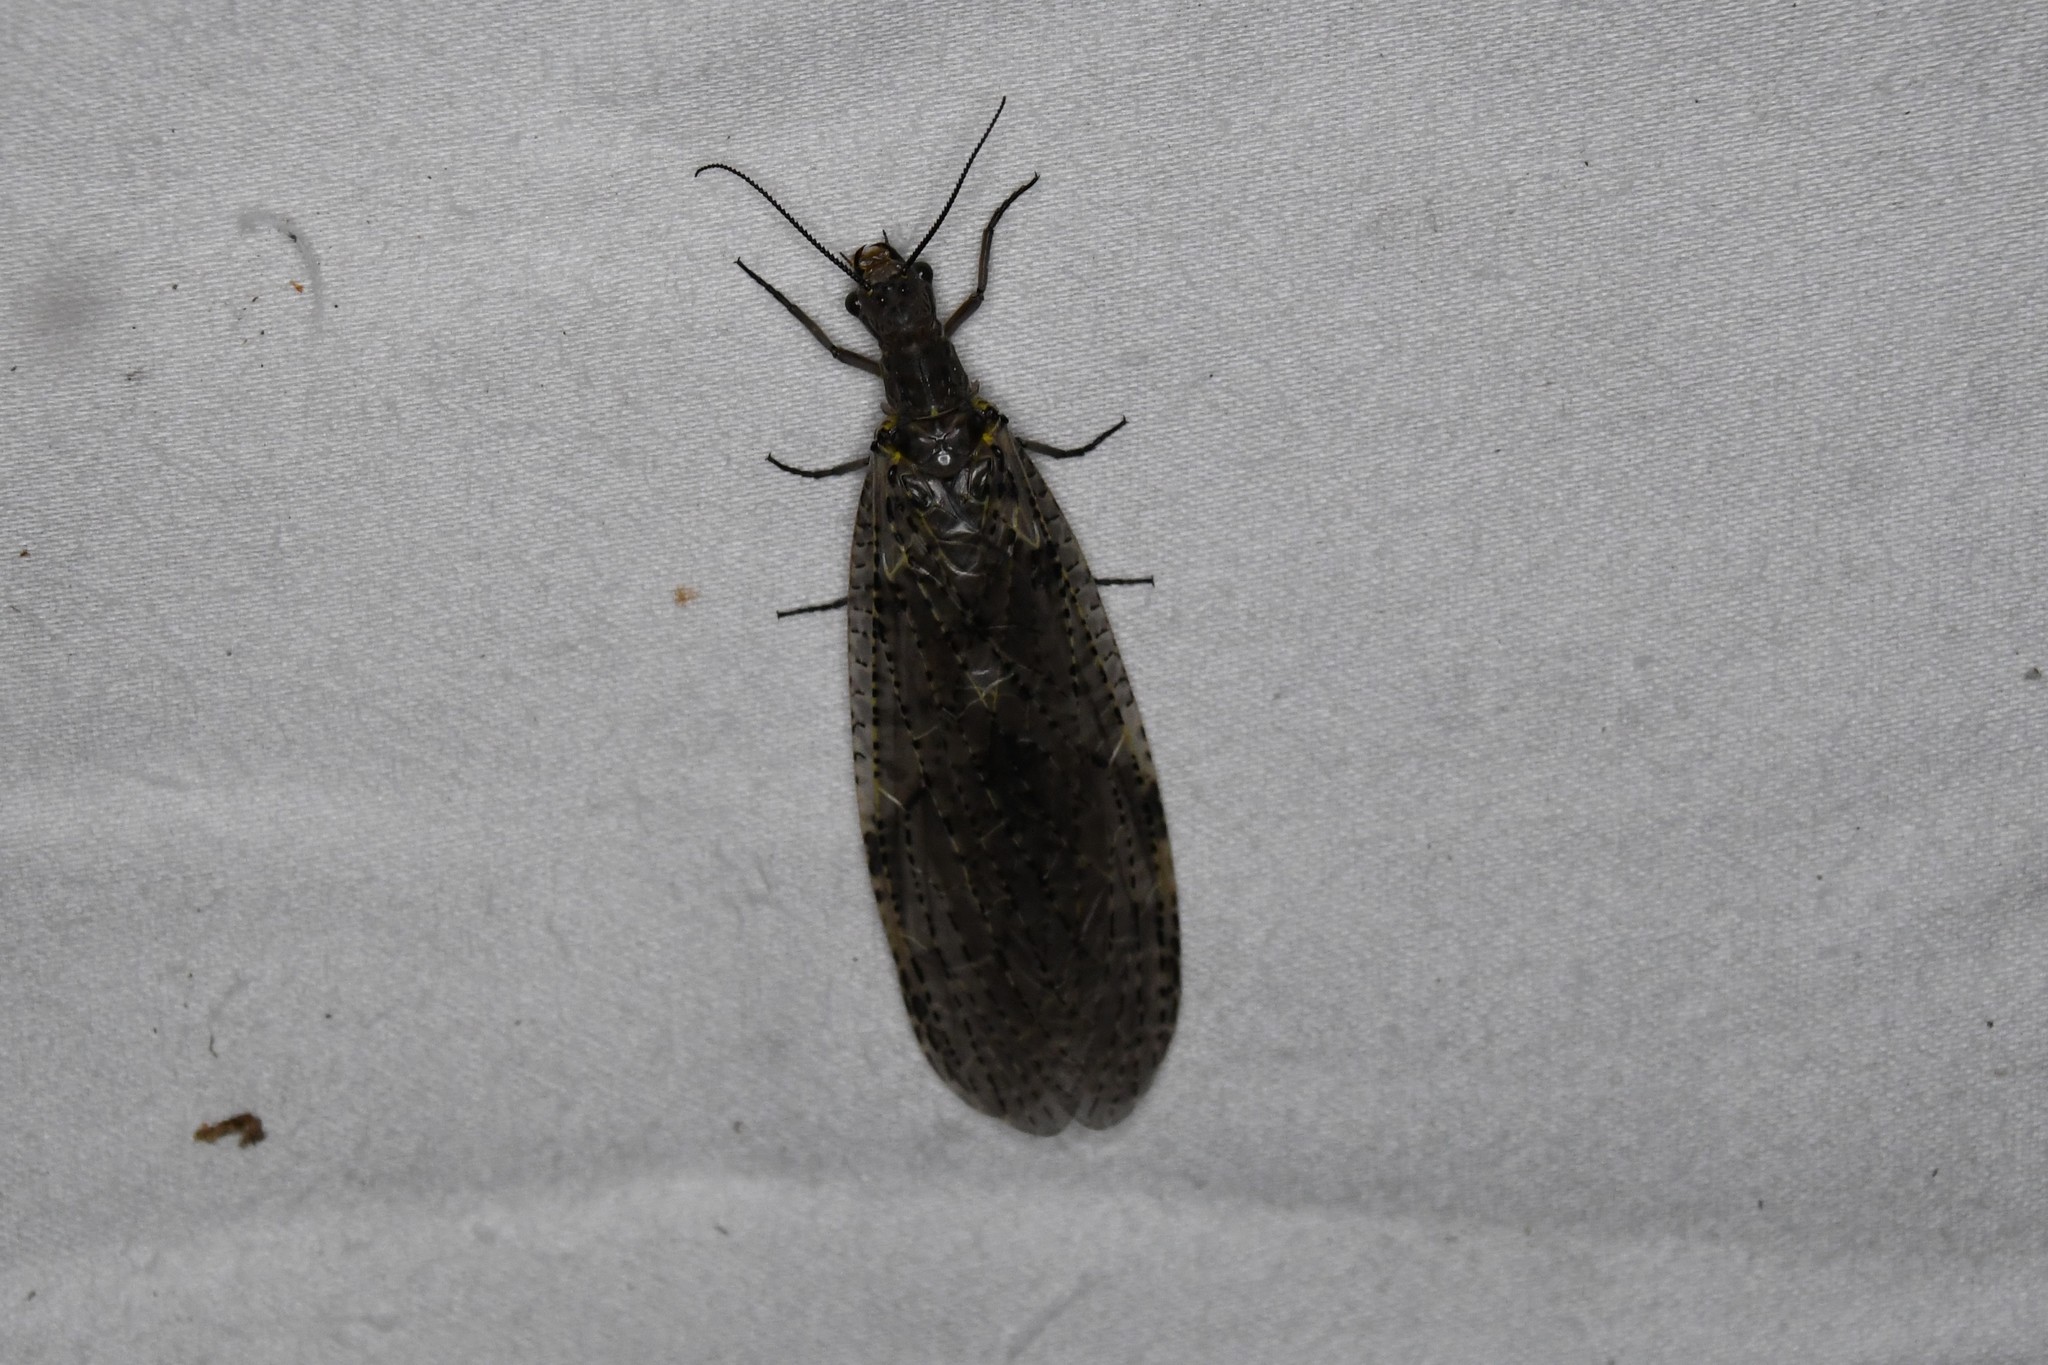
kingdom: Animalia
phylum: Arthropoda
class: Insecta
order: Megaloptera
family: Corydalidae
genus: Chauliodes
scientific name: Chauliodes rastricornis
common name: Spring fishfly
